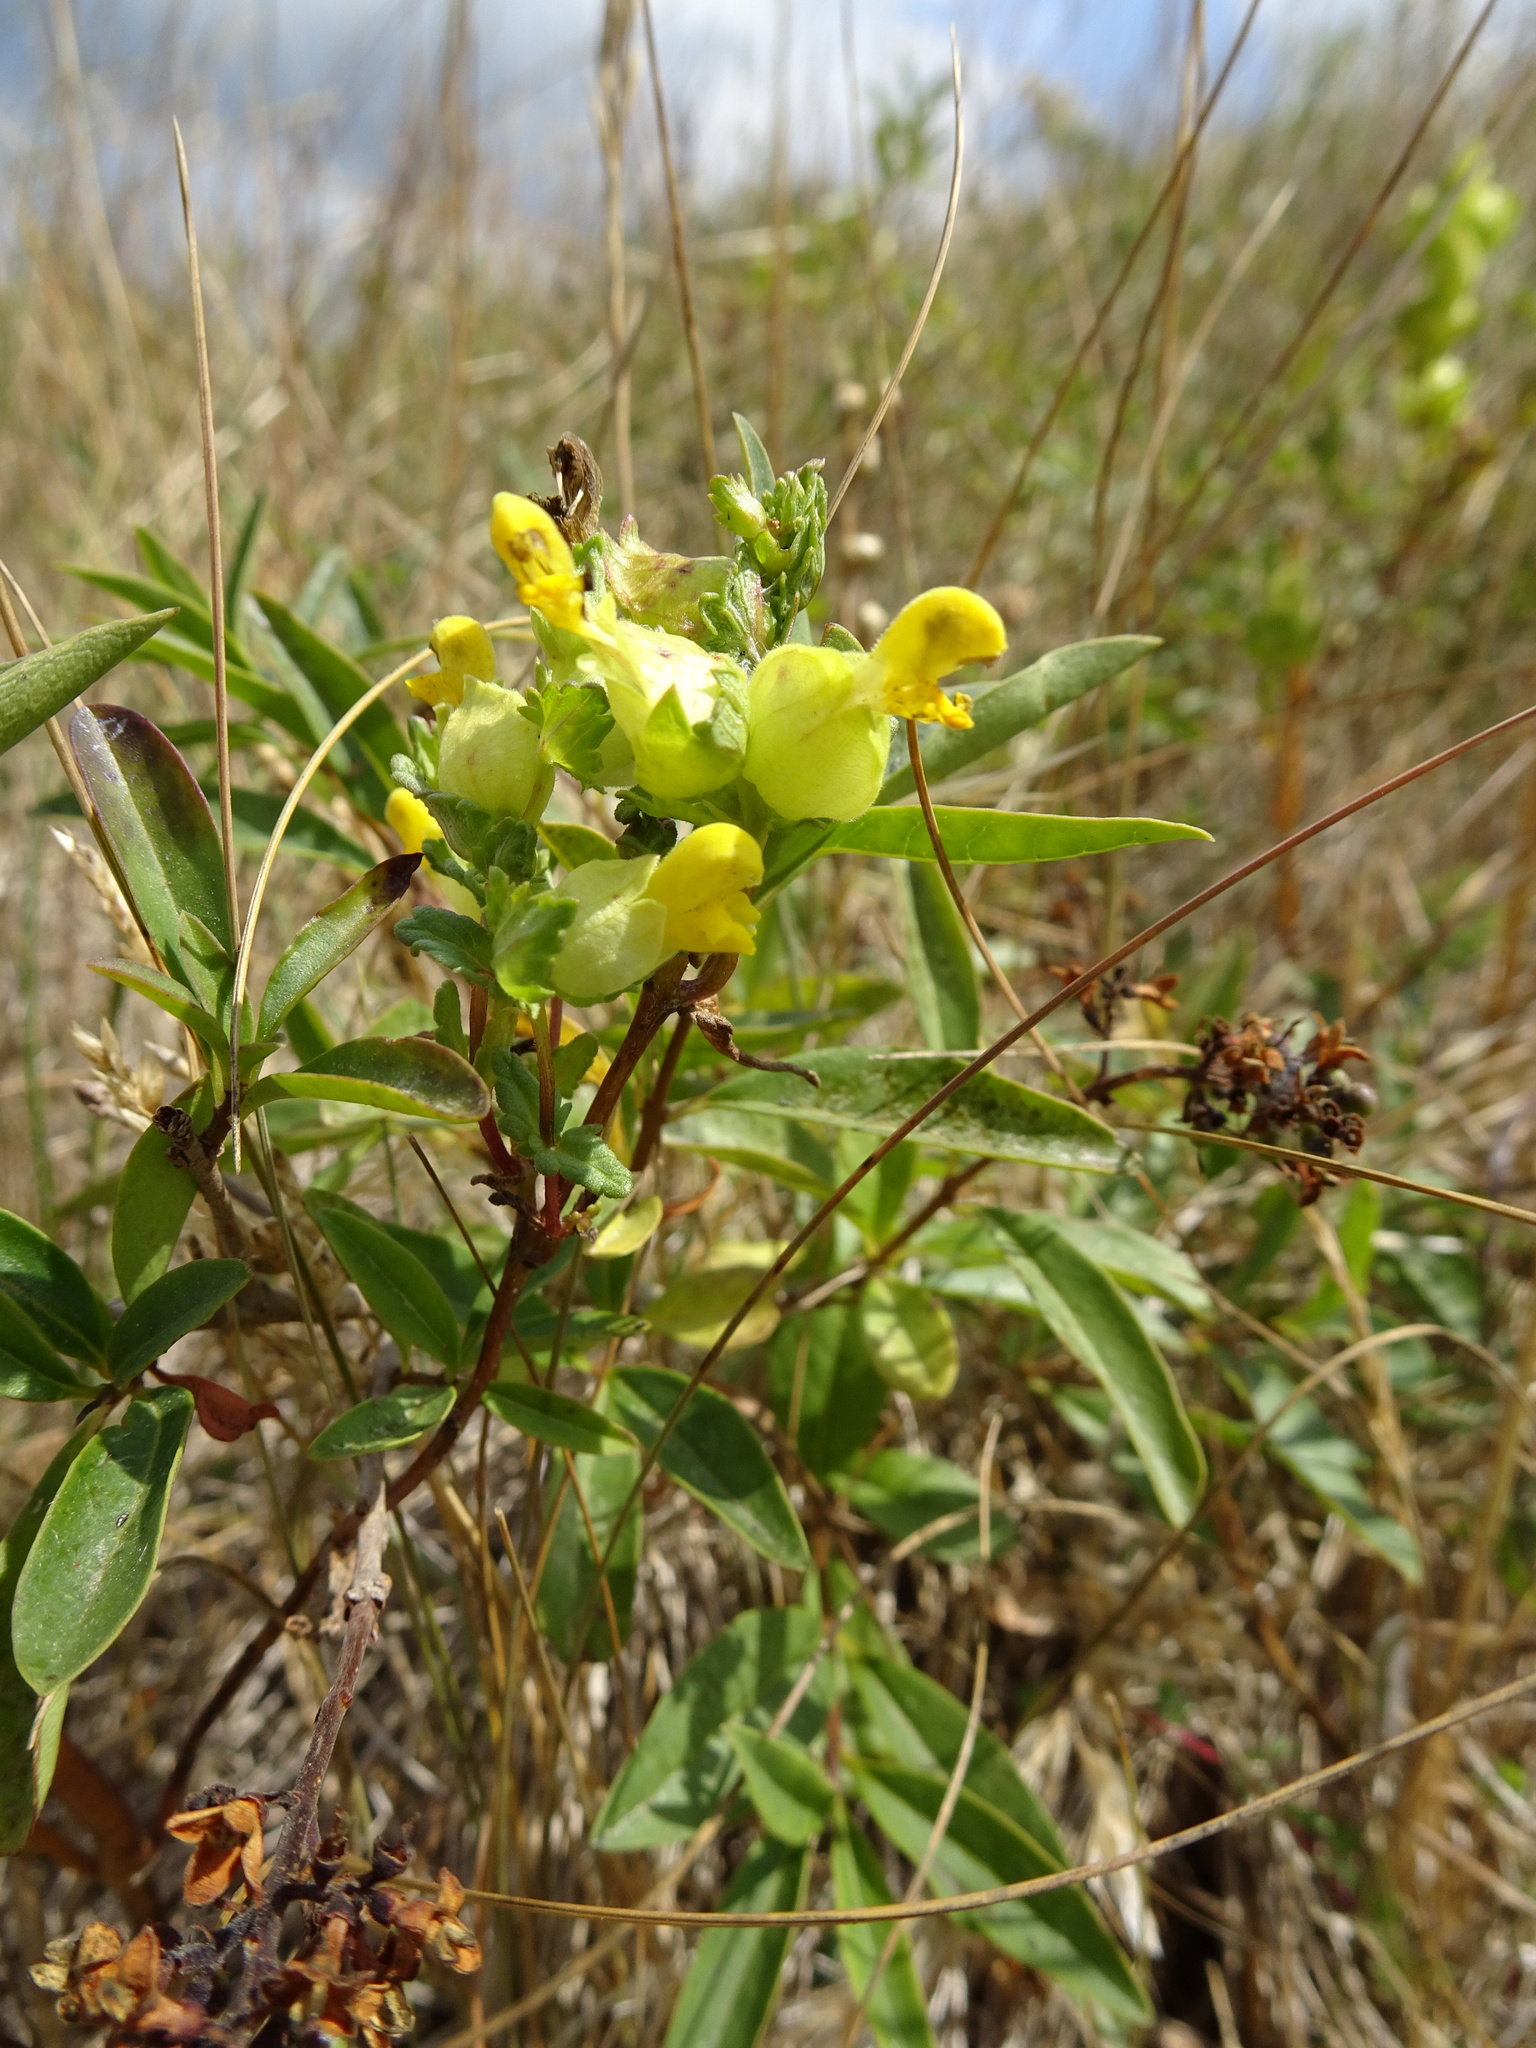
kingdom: Plantae
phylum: Tracheophyta
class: Magnoliopsida
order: Lamiales
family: Orobanchaceae
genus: Rhinanthus
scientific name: Rhinanthus minor
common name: Yellow-rattle
